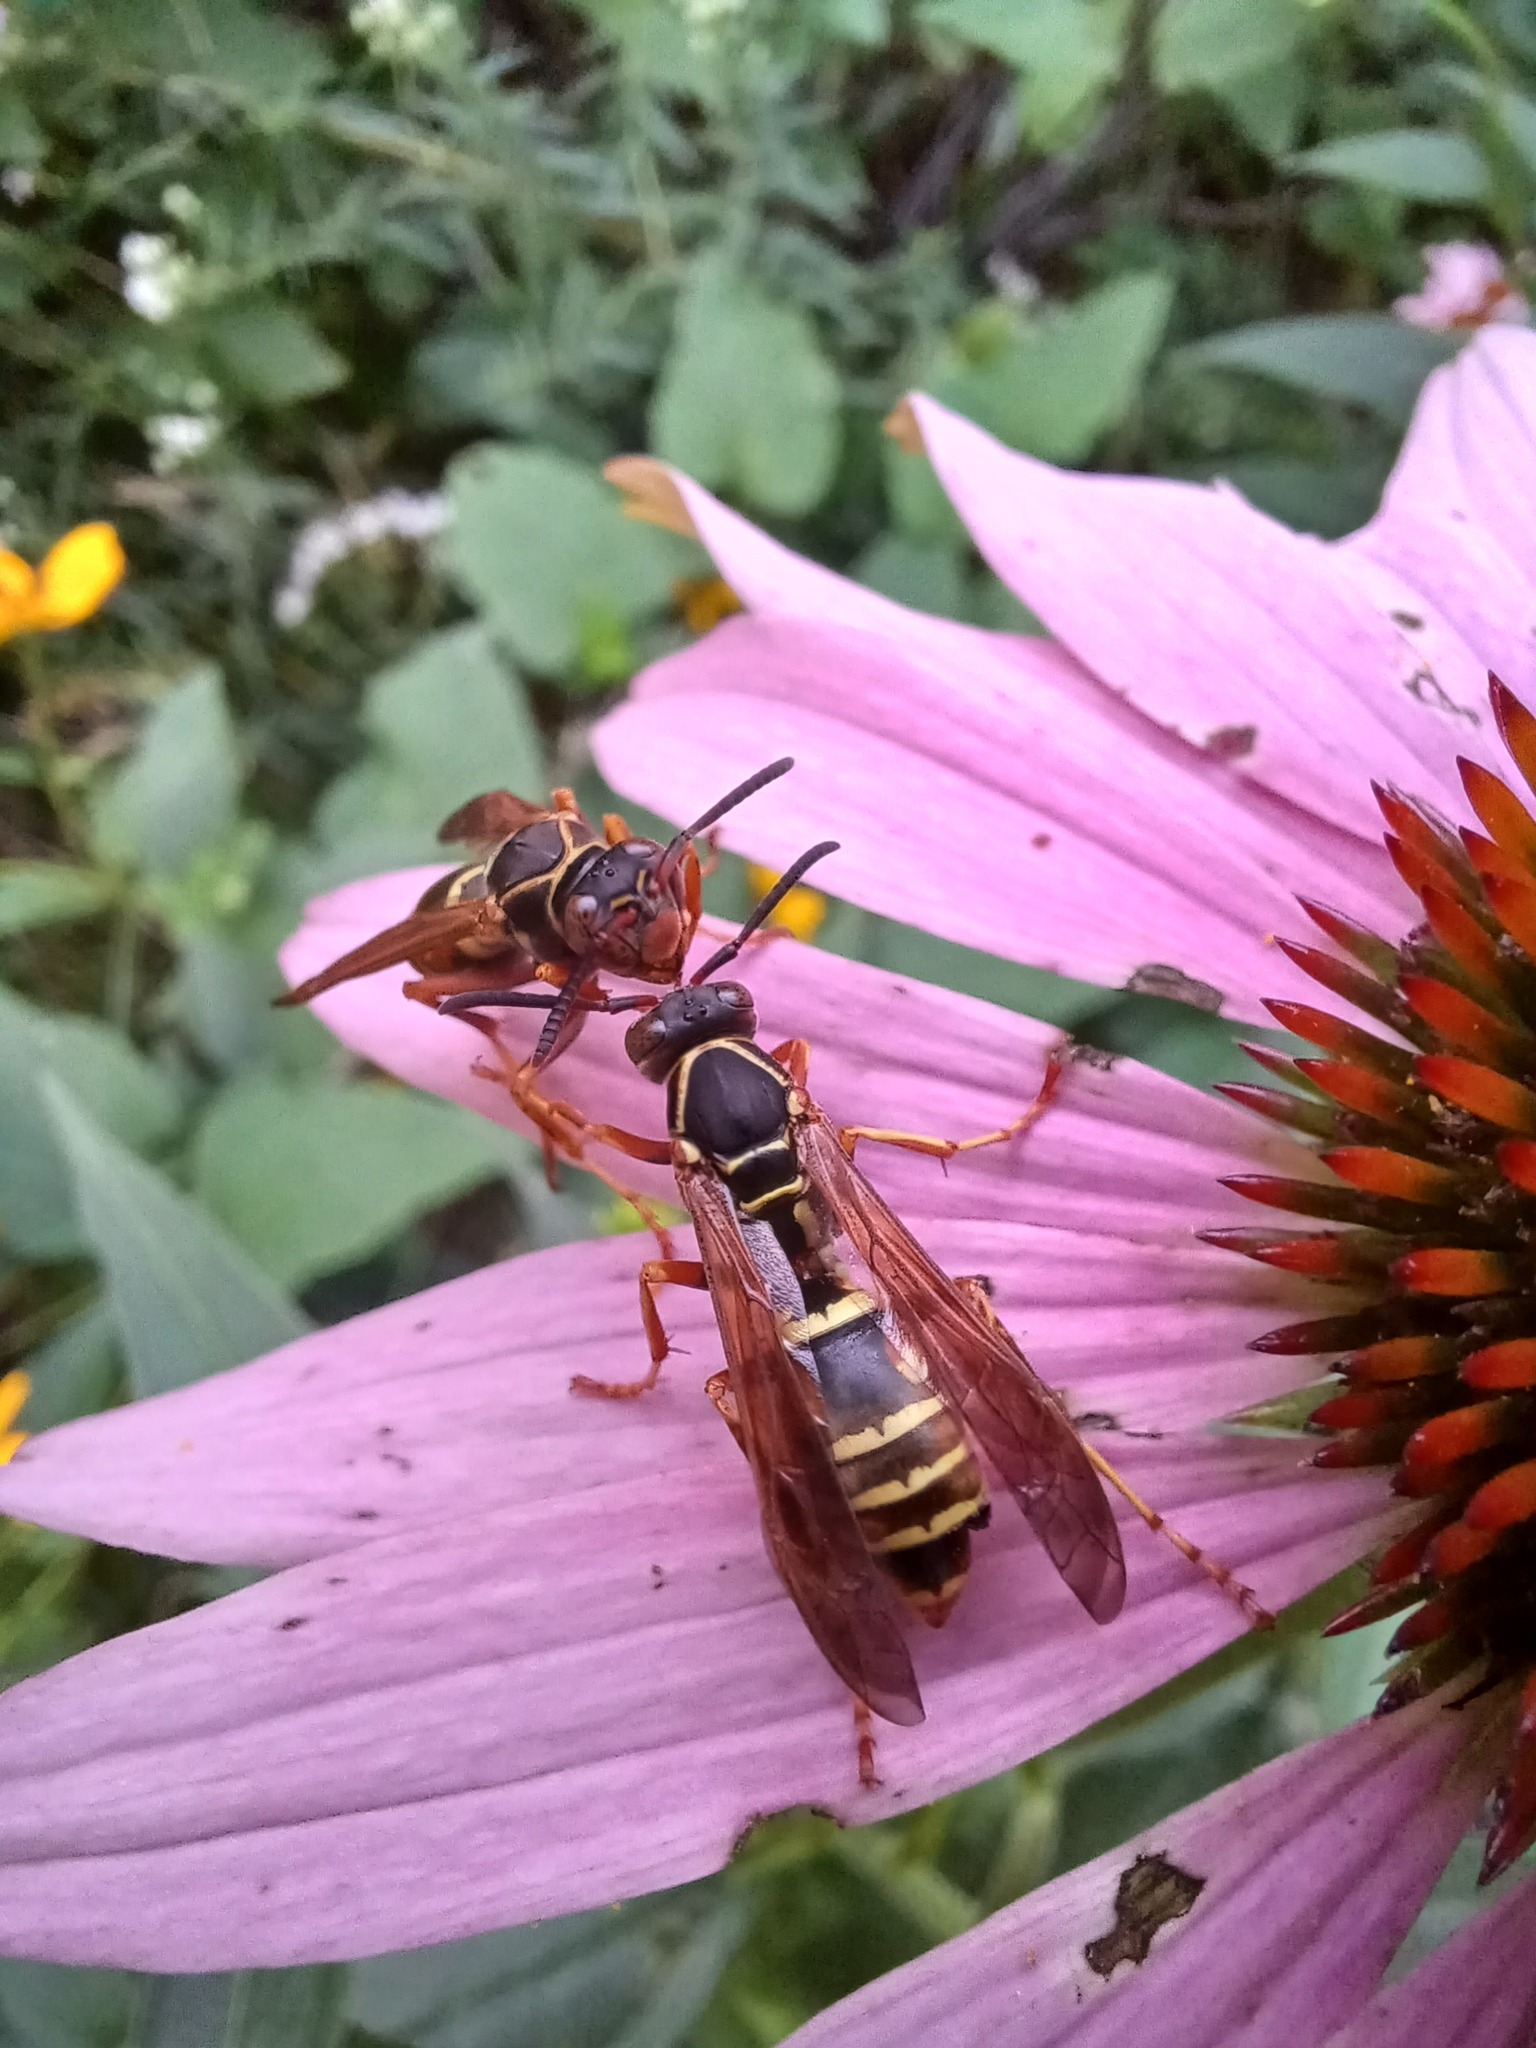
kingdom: Animalia
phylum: Arthropoda
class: Insecta
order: Hymenoptera
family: Eumenidae
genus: Polistes
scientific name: Polistes fuscatus
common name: Dark paper wasp
